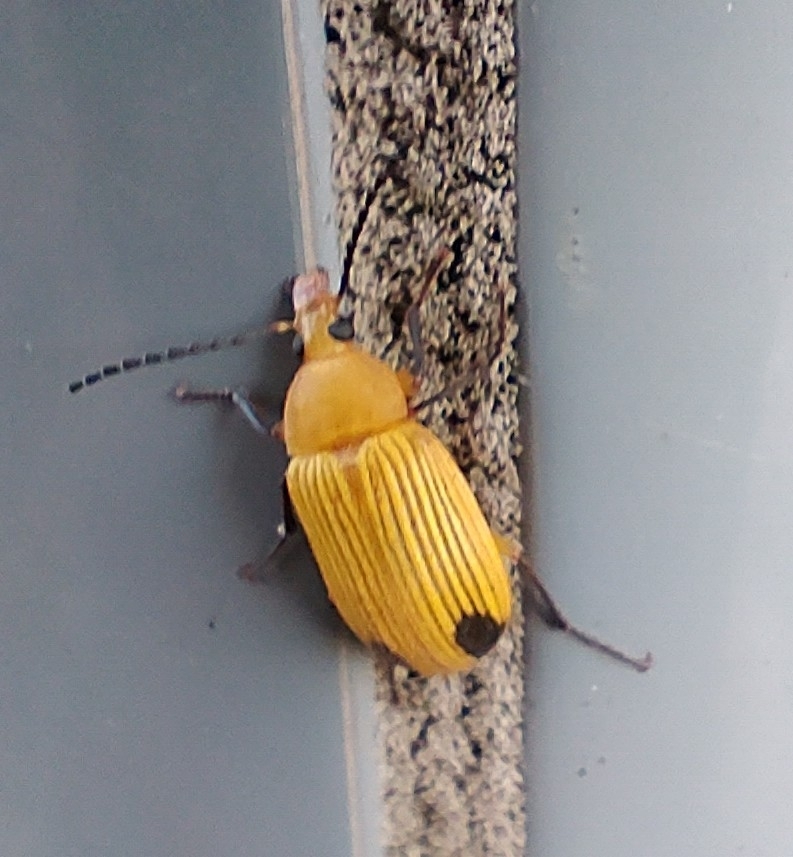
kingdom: Animalia
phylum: Arthropoda
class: Insecta
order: Coleoptera
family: Tenebrionidae
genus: Cistelomorpha
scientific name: Cistelomorpha bina
